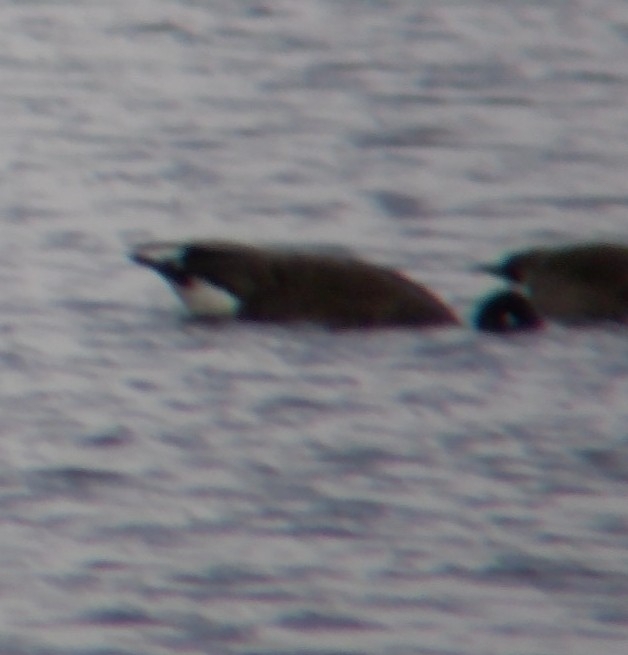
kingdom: Animalia
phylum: Chordata
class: Aves
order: Anseriformes
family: Anatidae
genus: Branta
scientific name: Branta canadensis
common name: Canada goose
